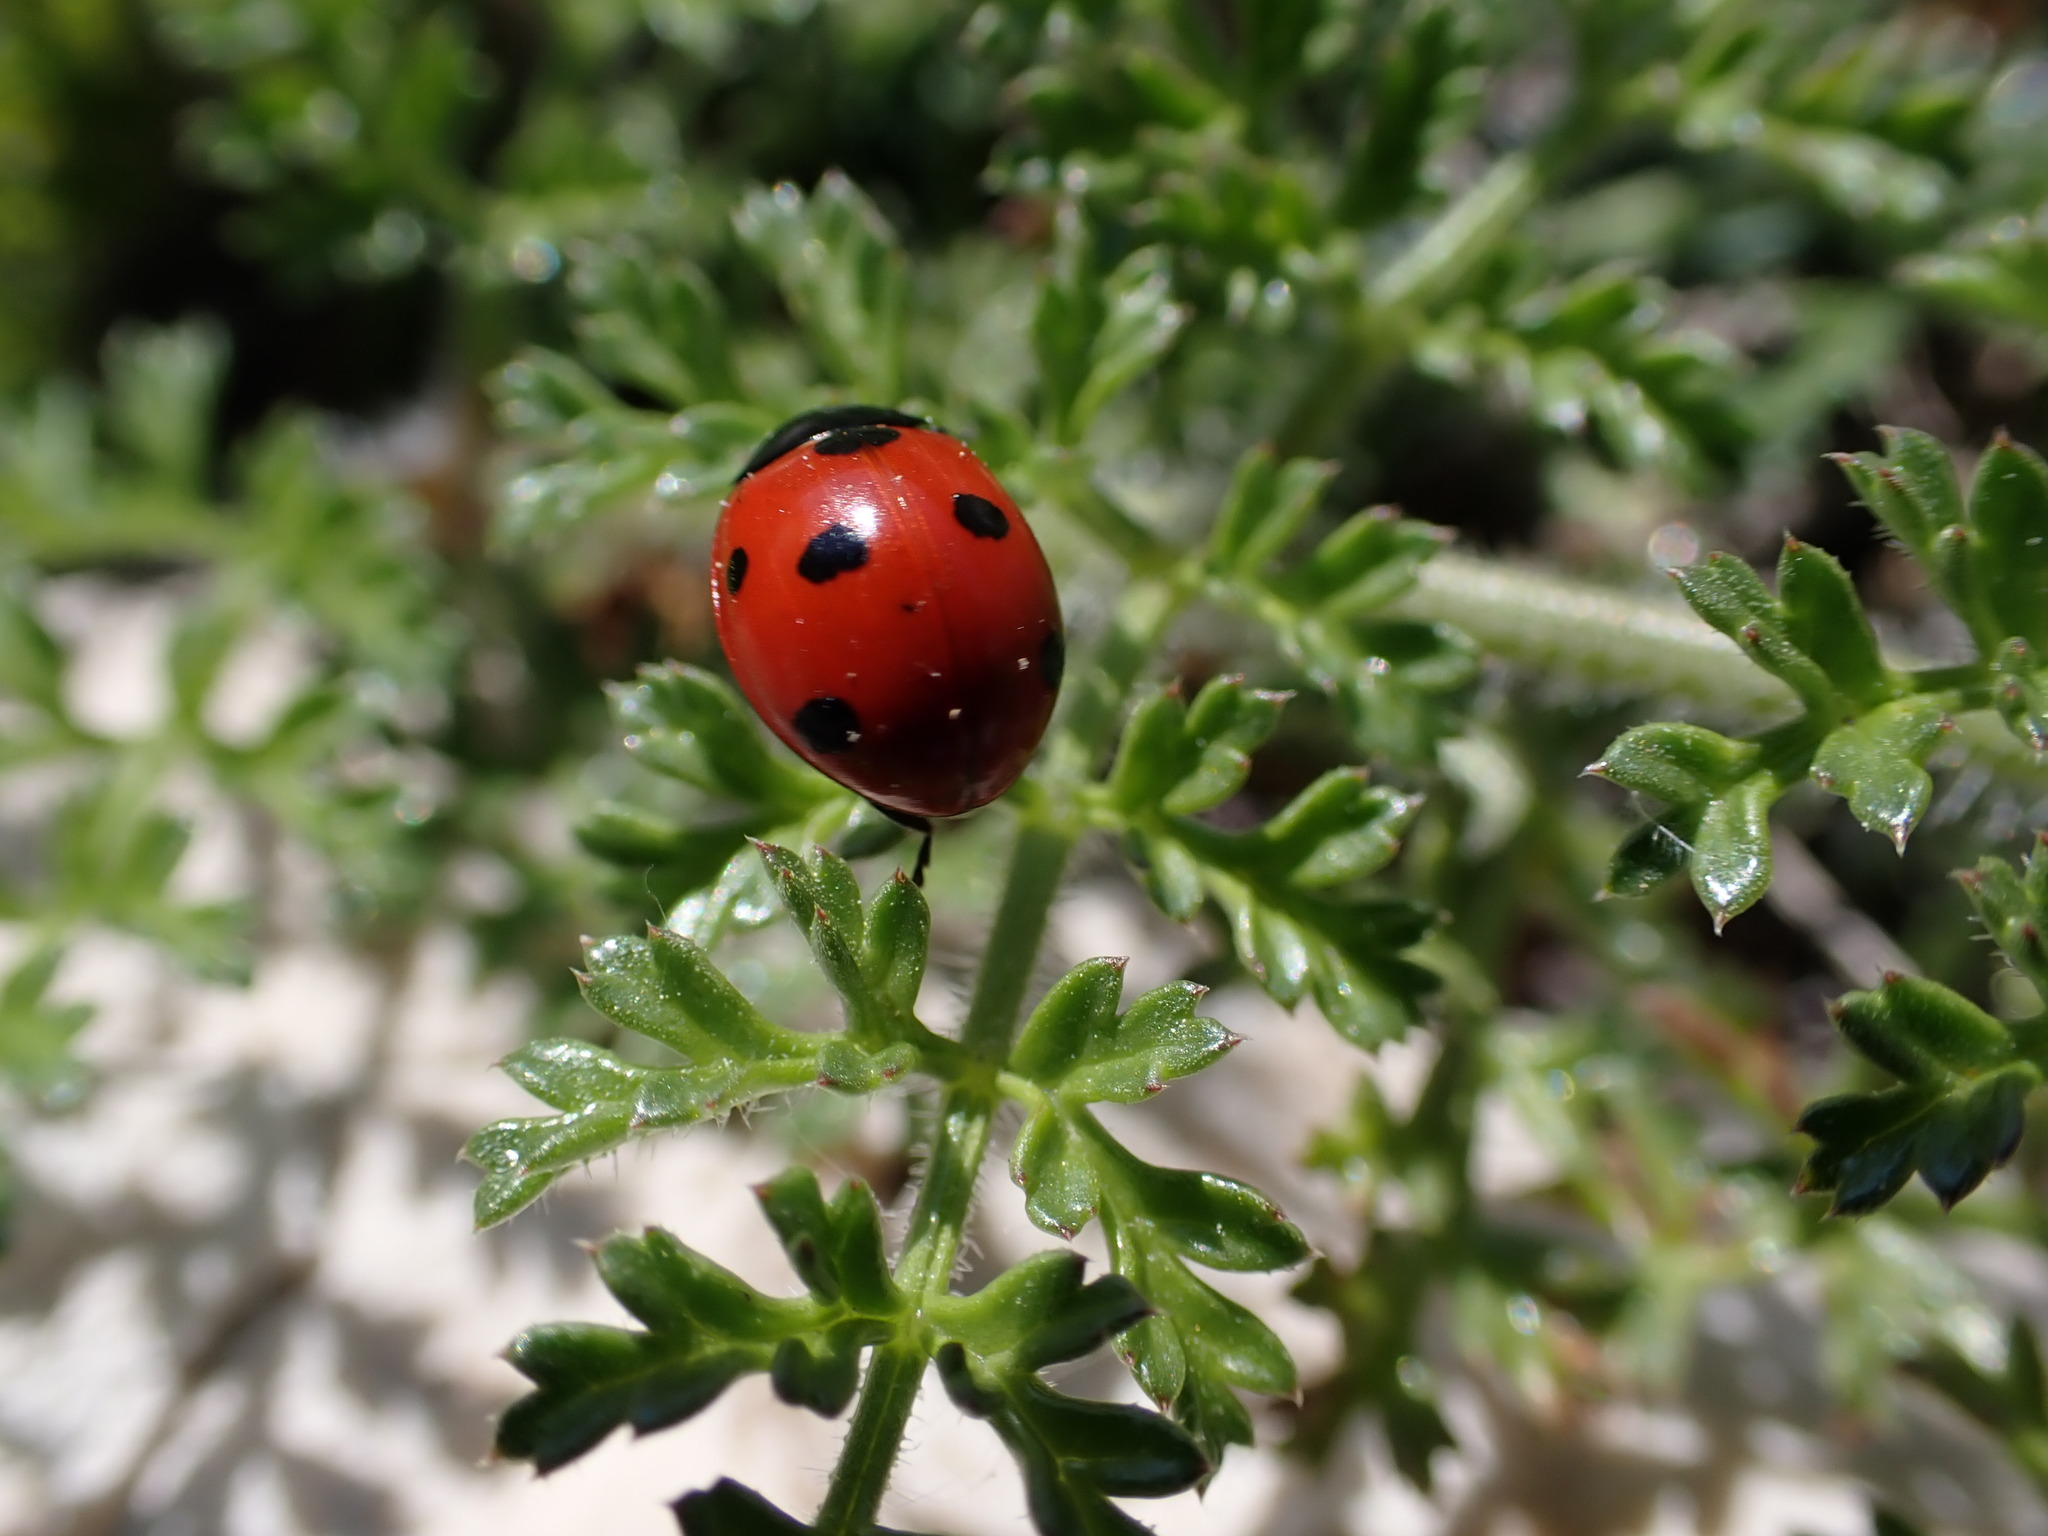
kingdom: Animalia
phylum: Arthropoda
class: Insecta
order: Coleoptera
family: Coccinellidae
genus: Coccinella
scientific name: Coccinella septempunctata
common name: Sevenspotted lady beetle
